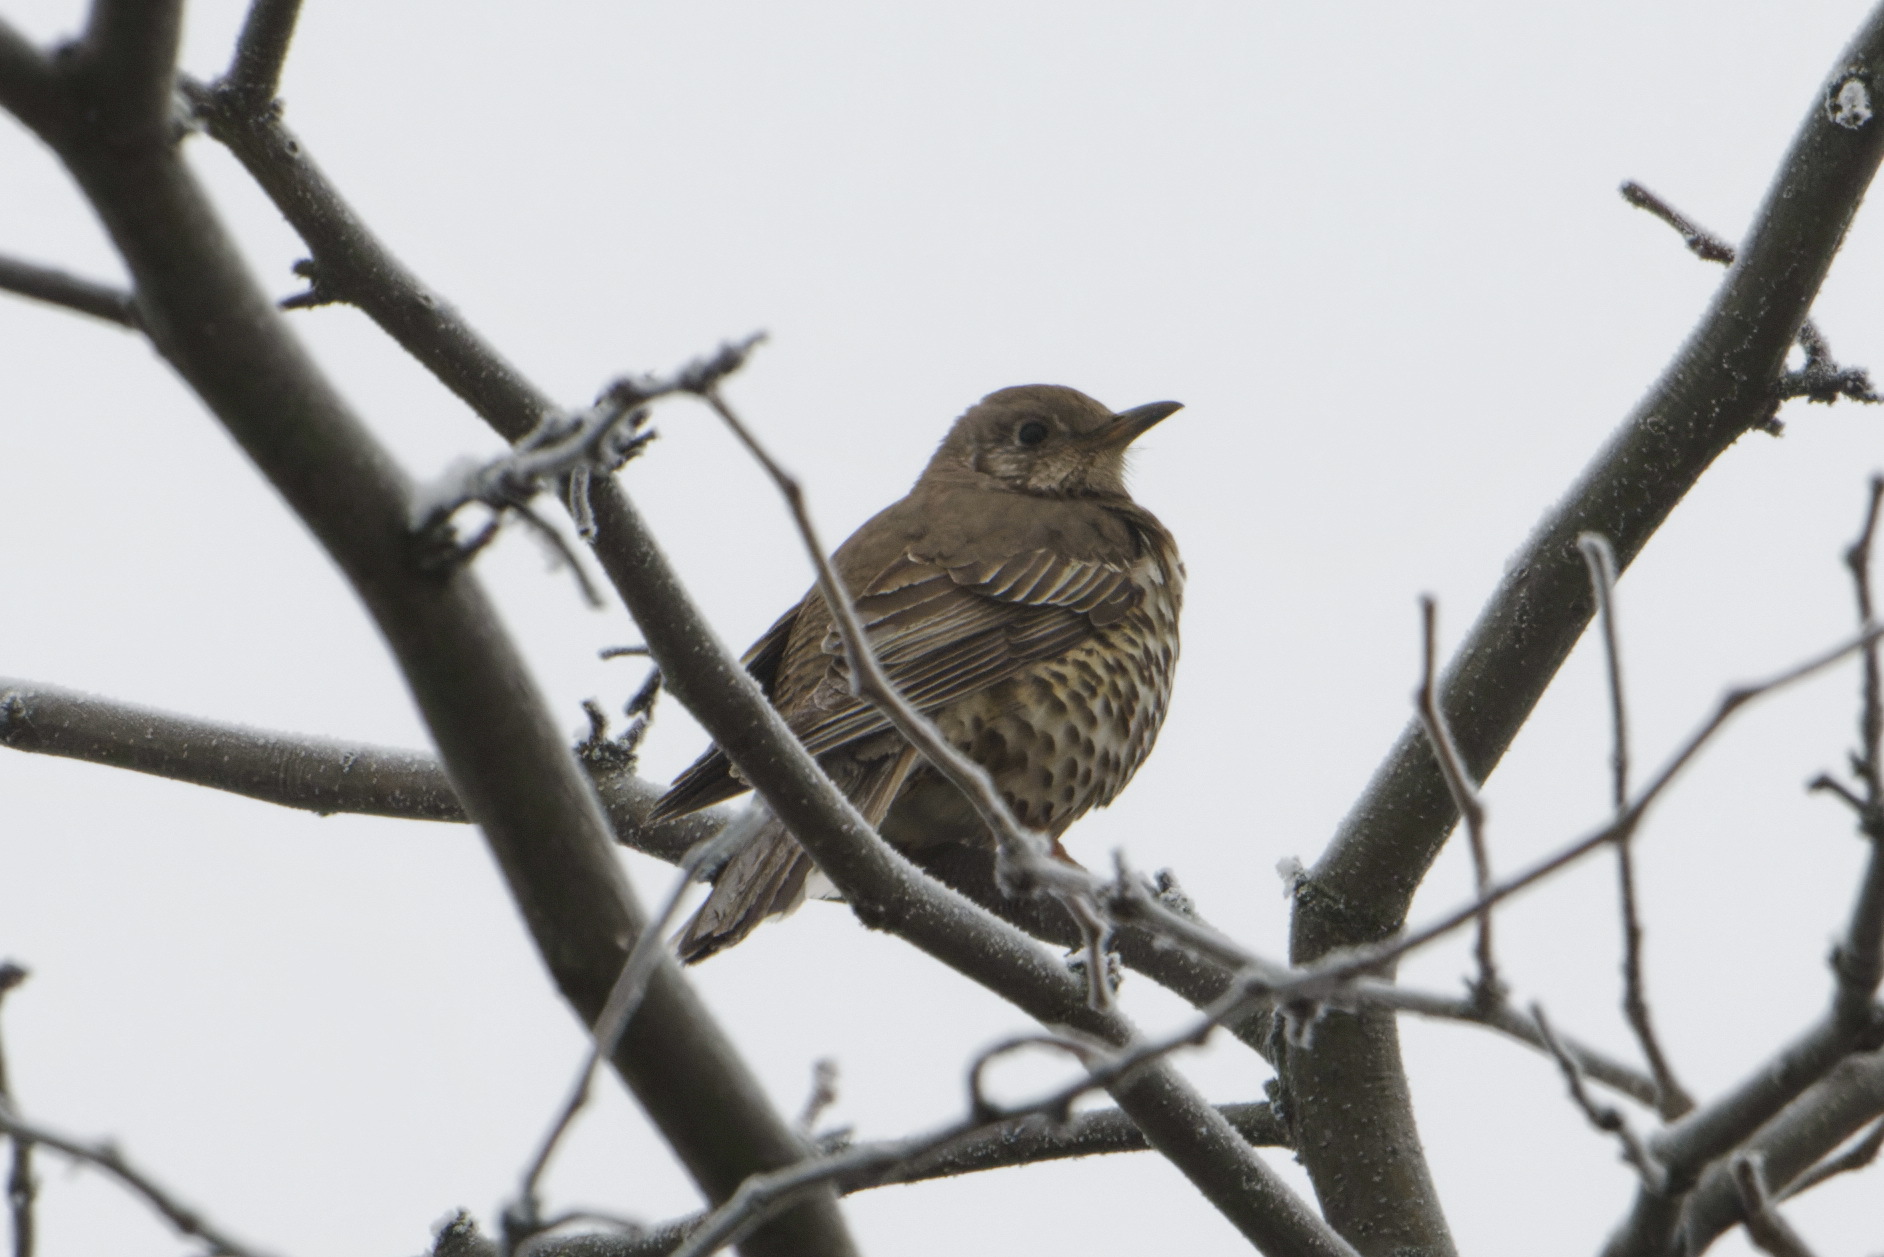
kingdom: Animalia
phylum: Chordata
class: Aves
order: Passeriformes
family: Turdidae
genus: Turdus
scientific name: Turdus viscivorus
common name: Mistle thrush
